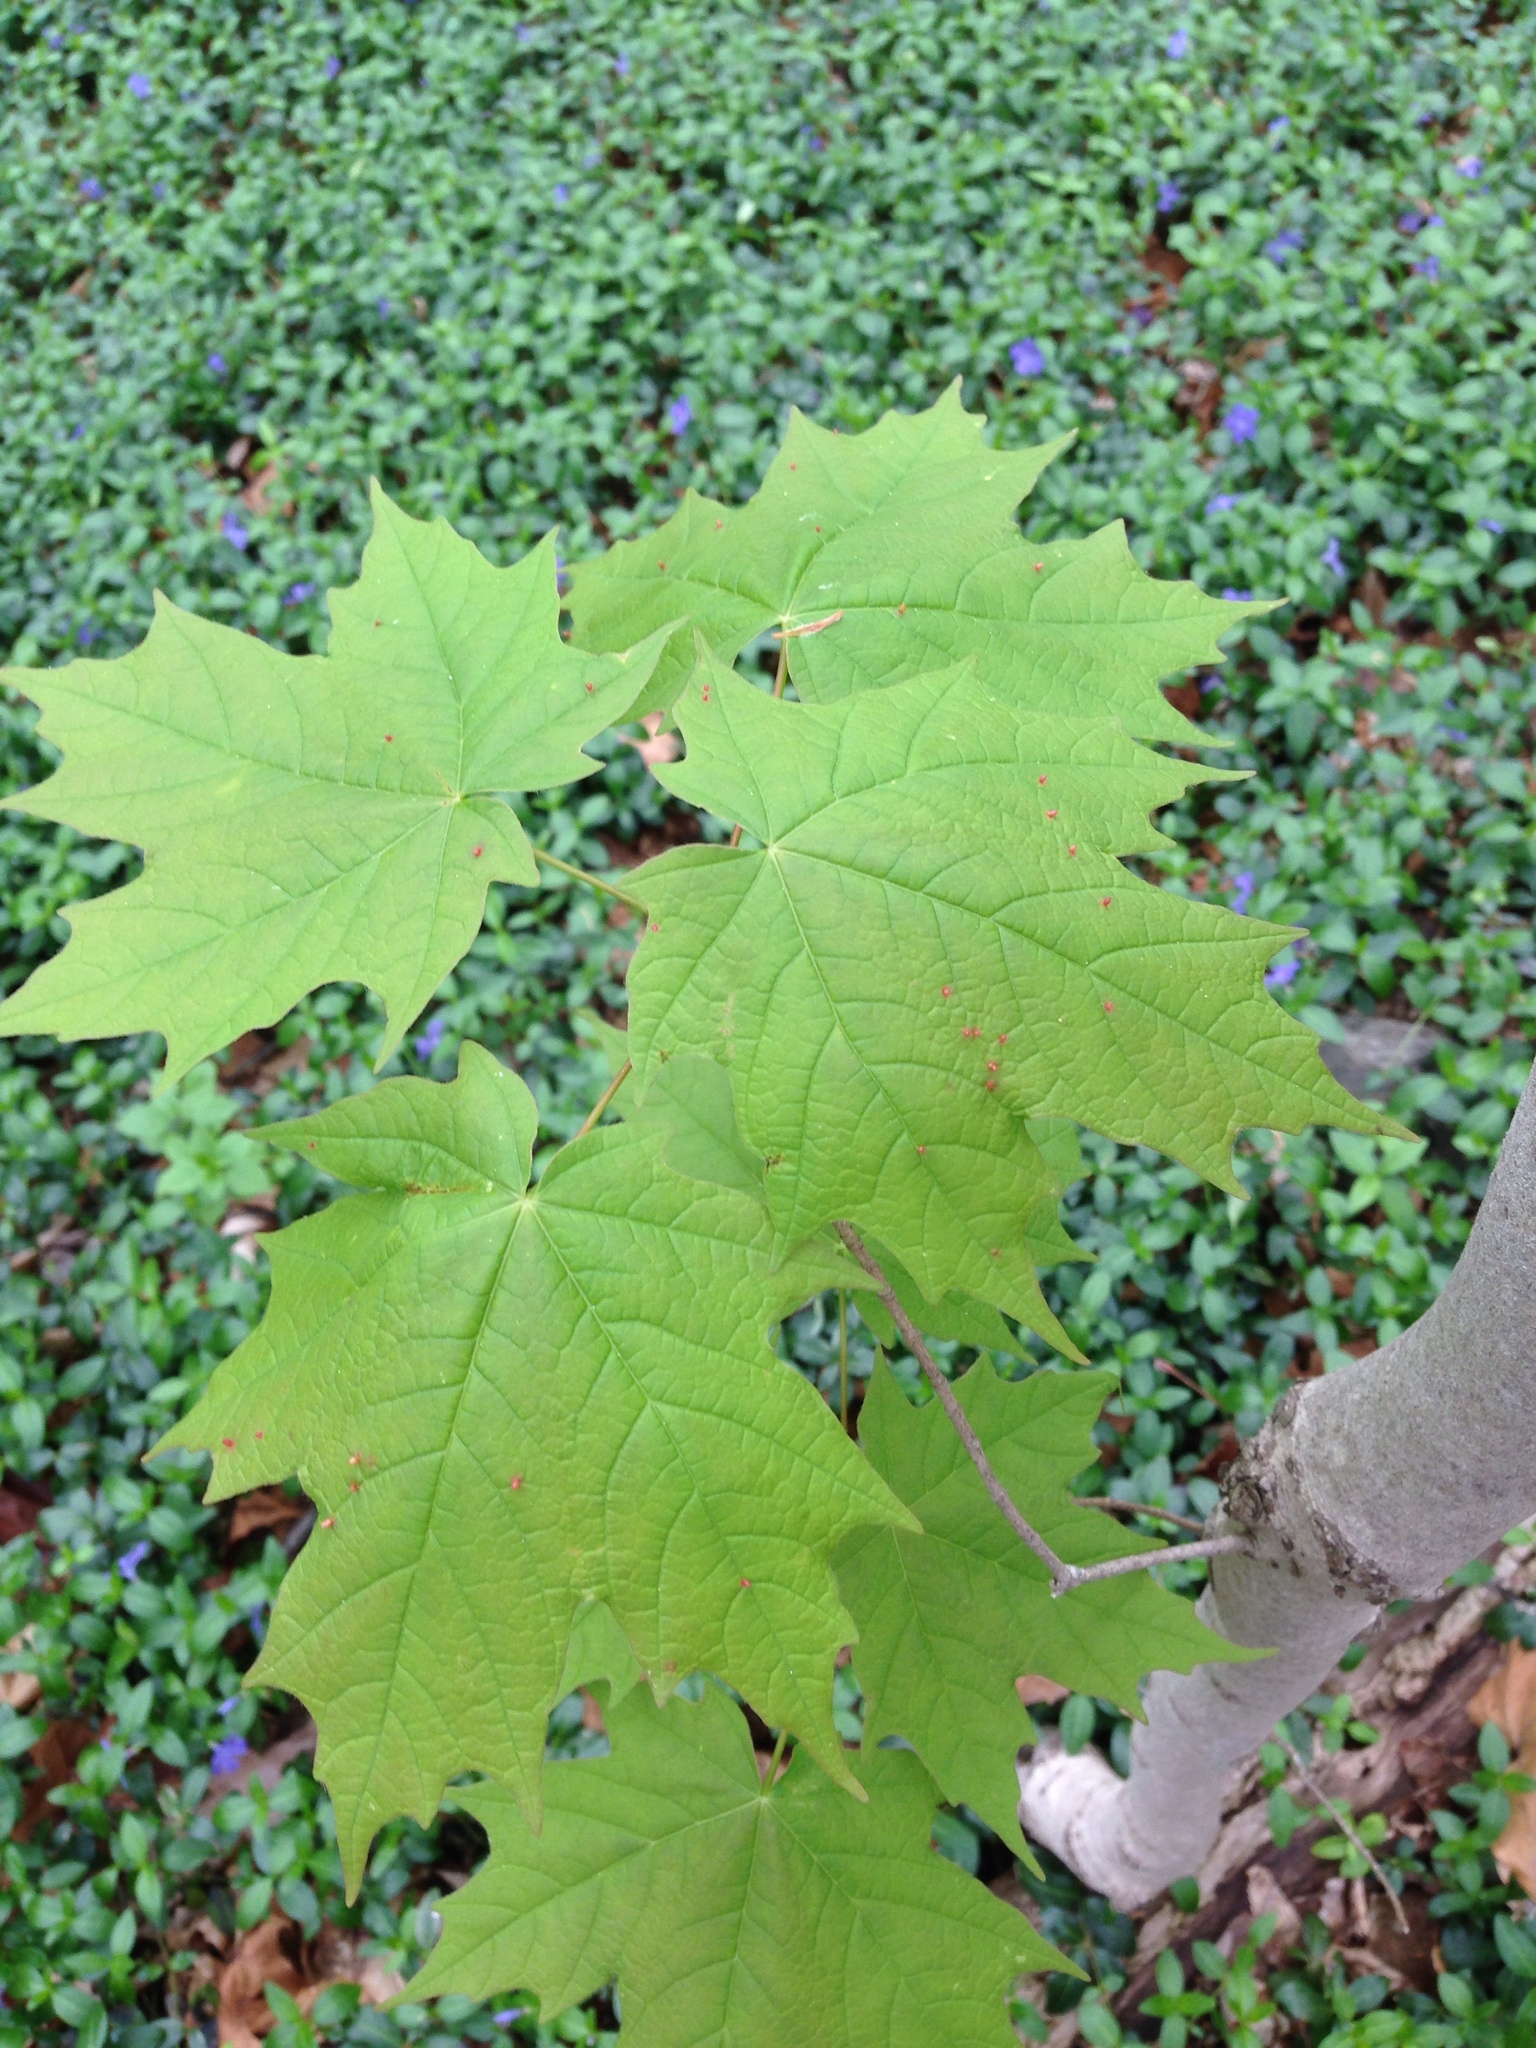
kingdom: Animalia
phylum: Arthropoda
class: Arachnida
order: Trombidiformes
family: Eriophyidae
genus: Vasates
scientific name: Vasates aceriscrumena
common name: Maple spindle gall mite
